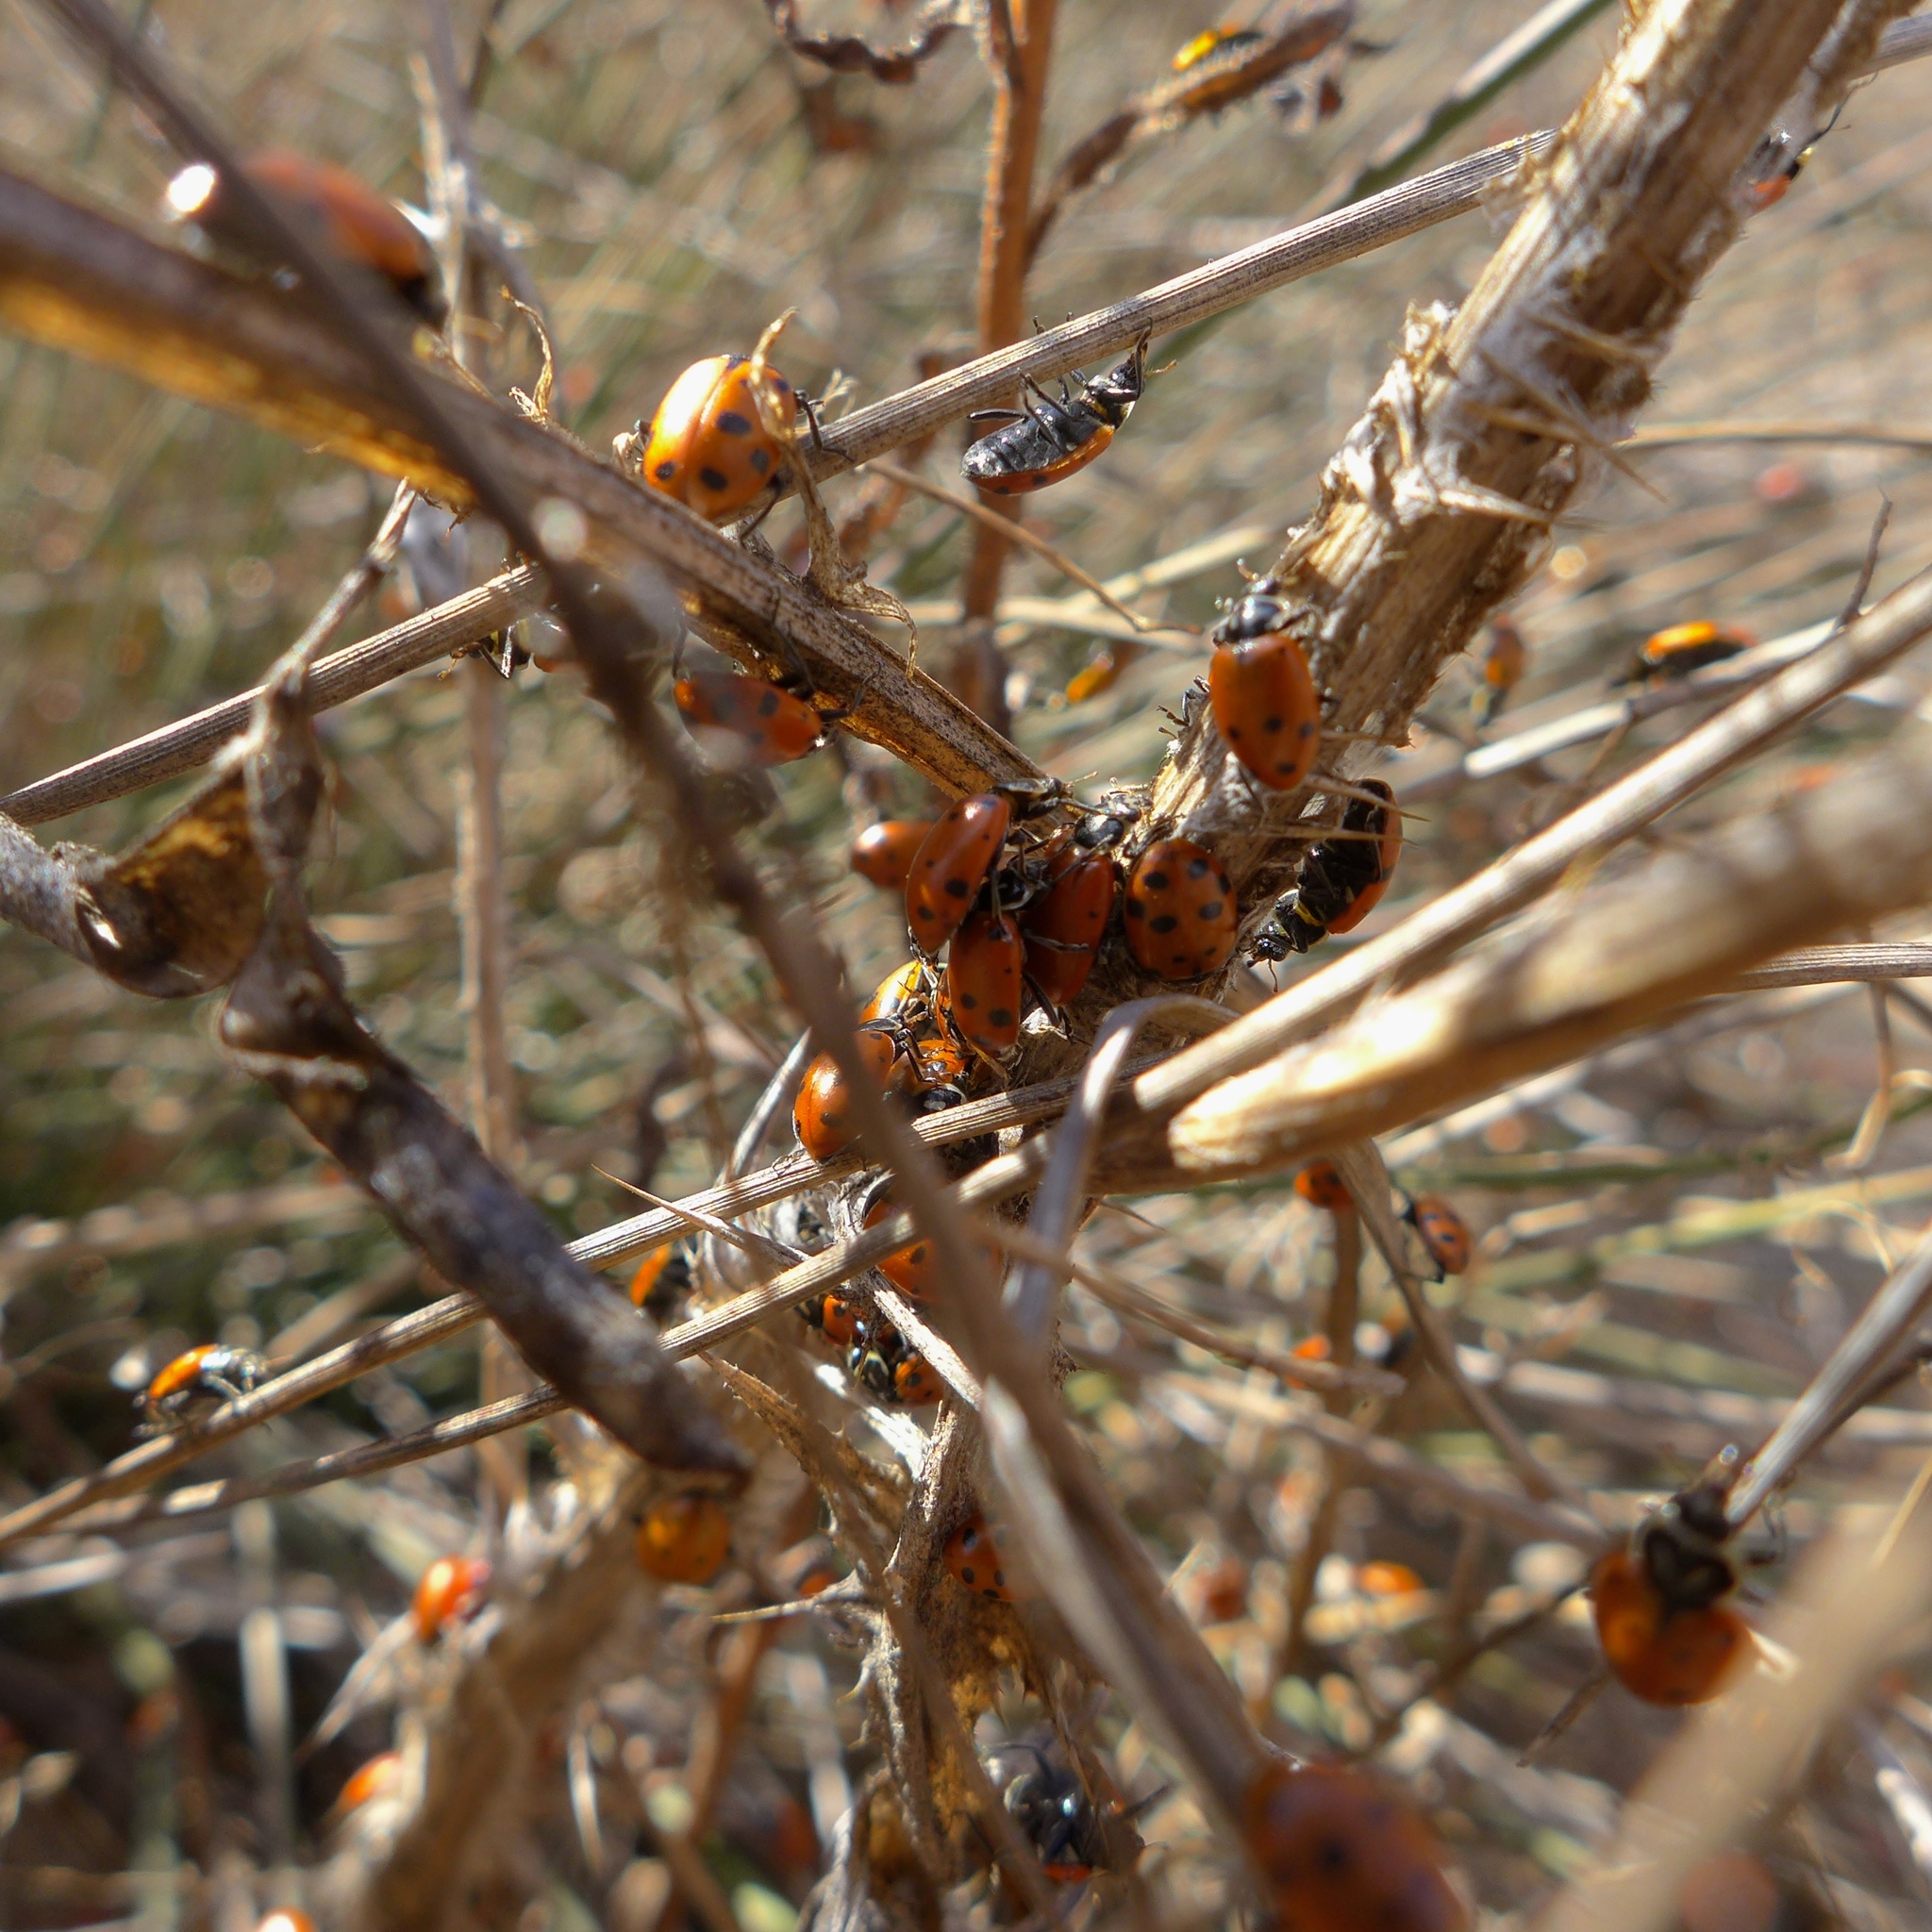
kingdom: Animalia
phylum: Arthropoda
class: Insecta
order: Coleoptera
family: Coccinellidae
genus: Hippodamia
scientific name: Hippodamia convergens
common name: Convergent lady beetle
